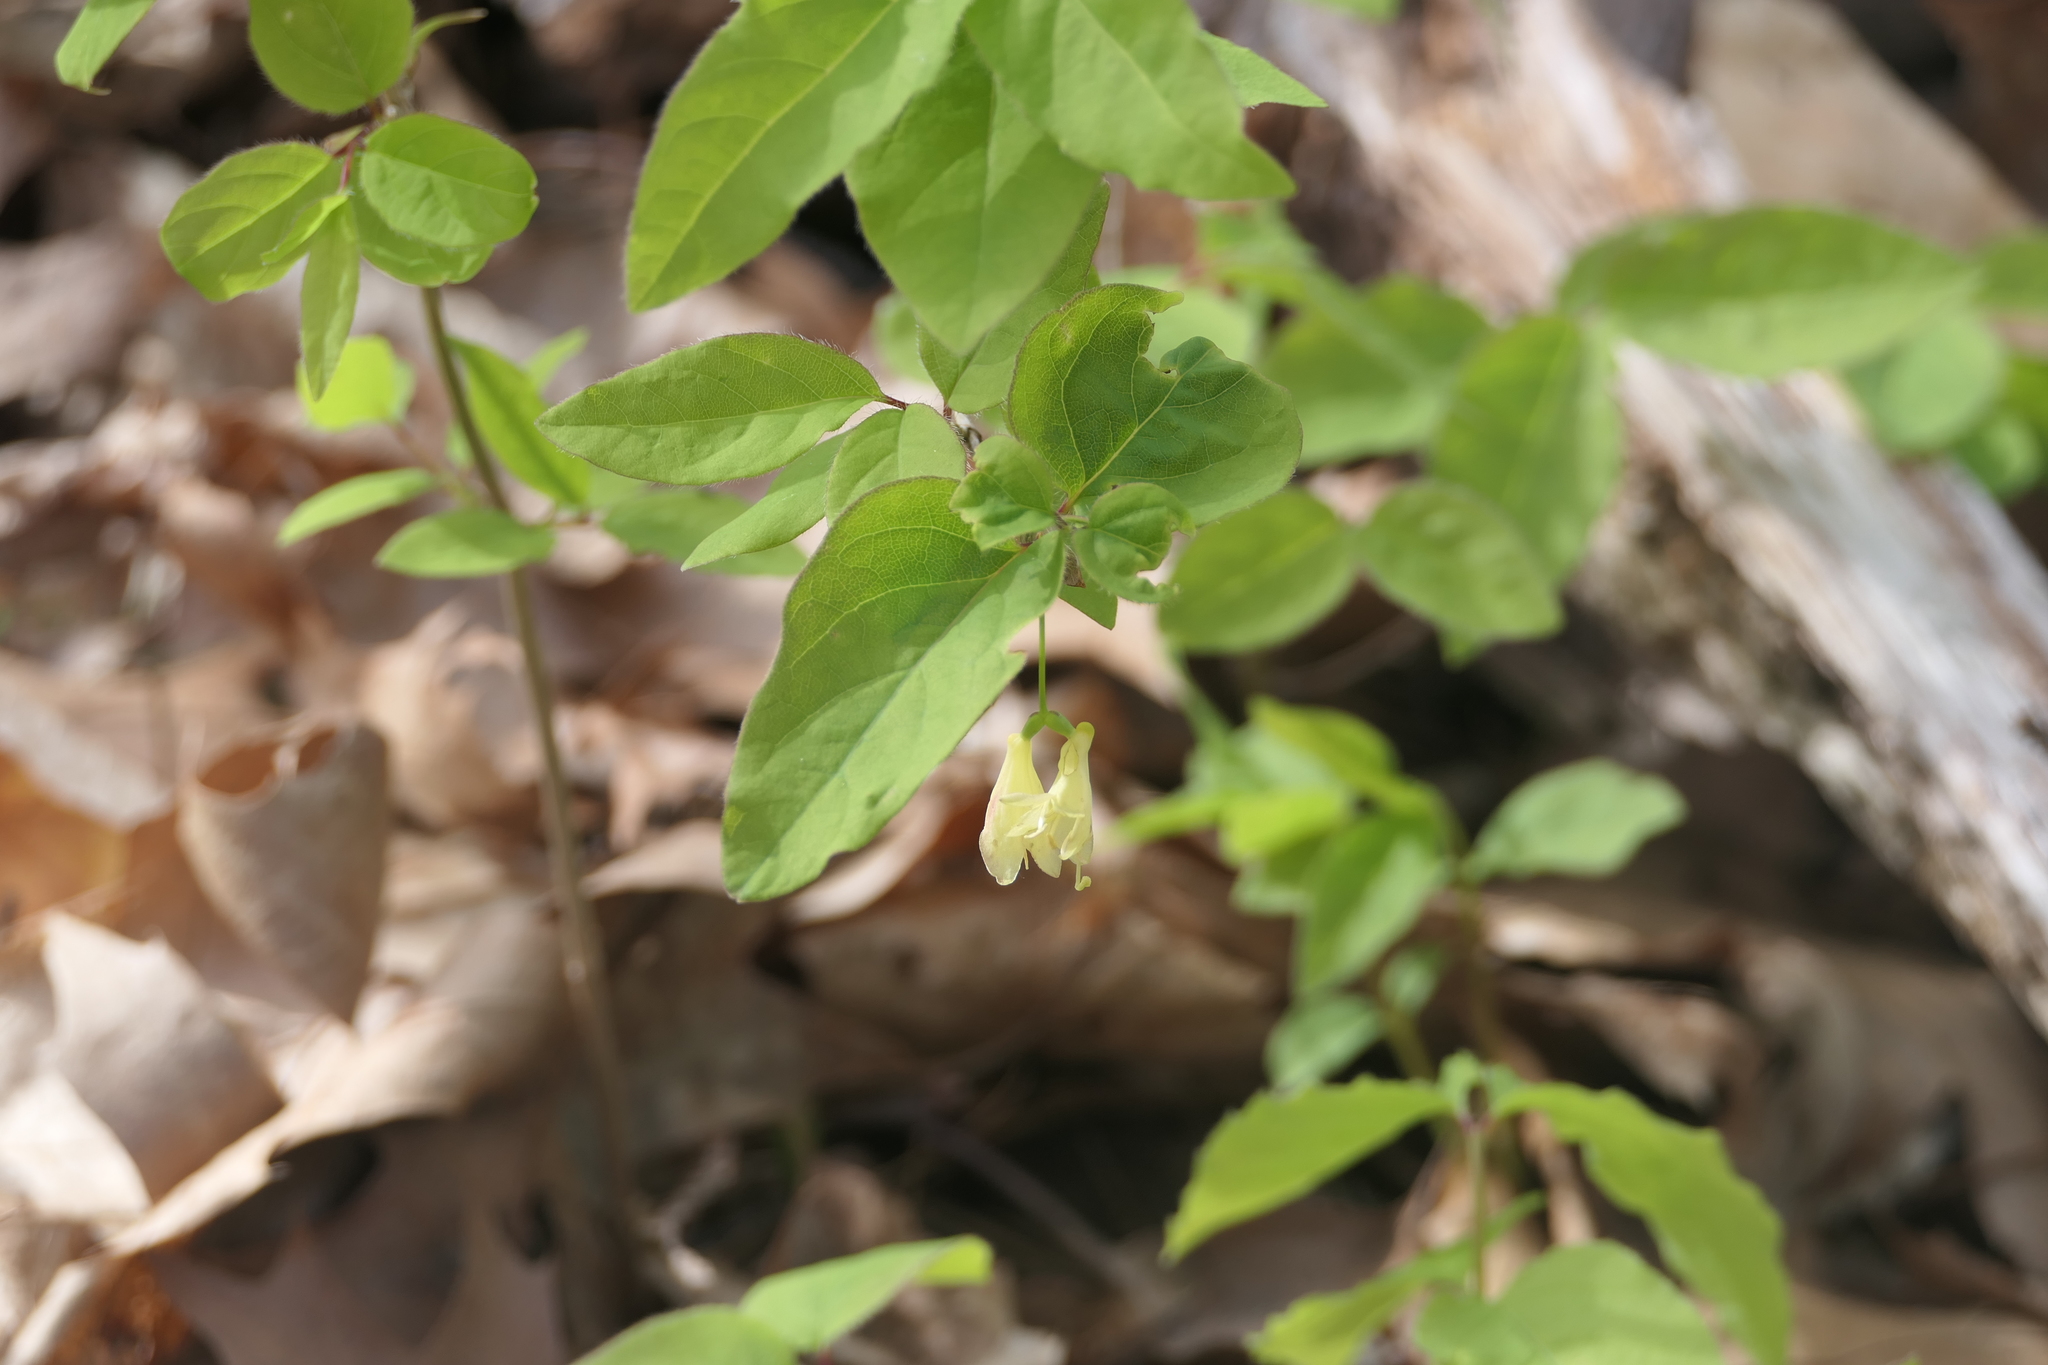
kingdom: Plantae
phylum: Tracheophyta
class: Magnoliopsida
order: Dipsacales
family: Caprifoliaceae
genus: Lonicera
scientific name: Lonicera canadensis
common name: American fly-honeysuckle
